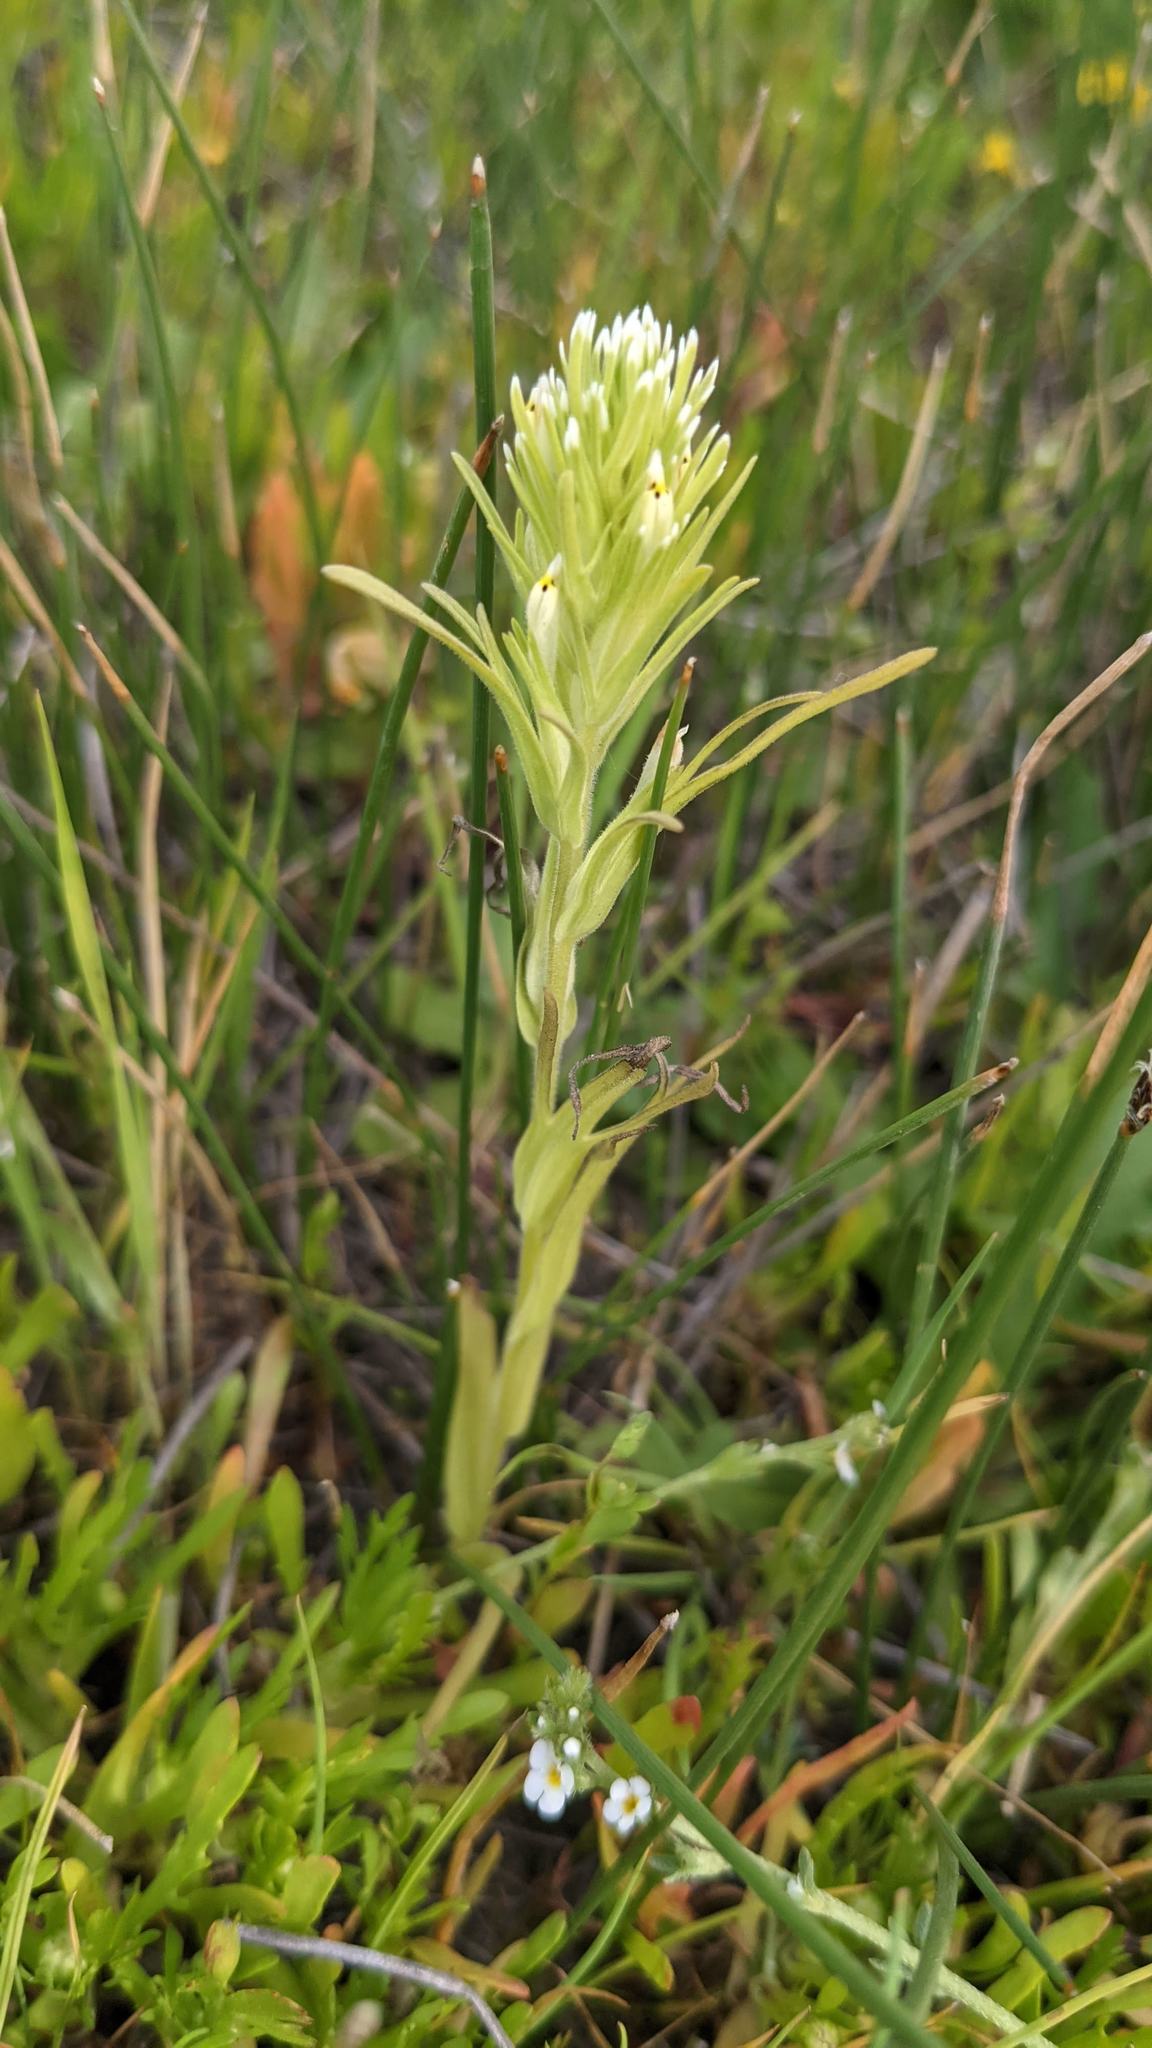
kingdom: Plantae
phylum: Tracheophyta
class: Magnoliopsida
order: Lamiales
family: Orobanchaceae
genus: Castilleja
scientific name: Castilleja attenuata
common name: Valley tassels
